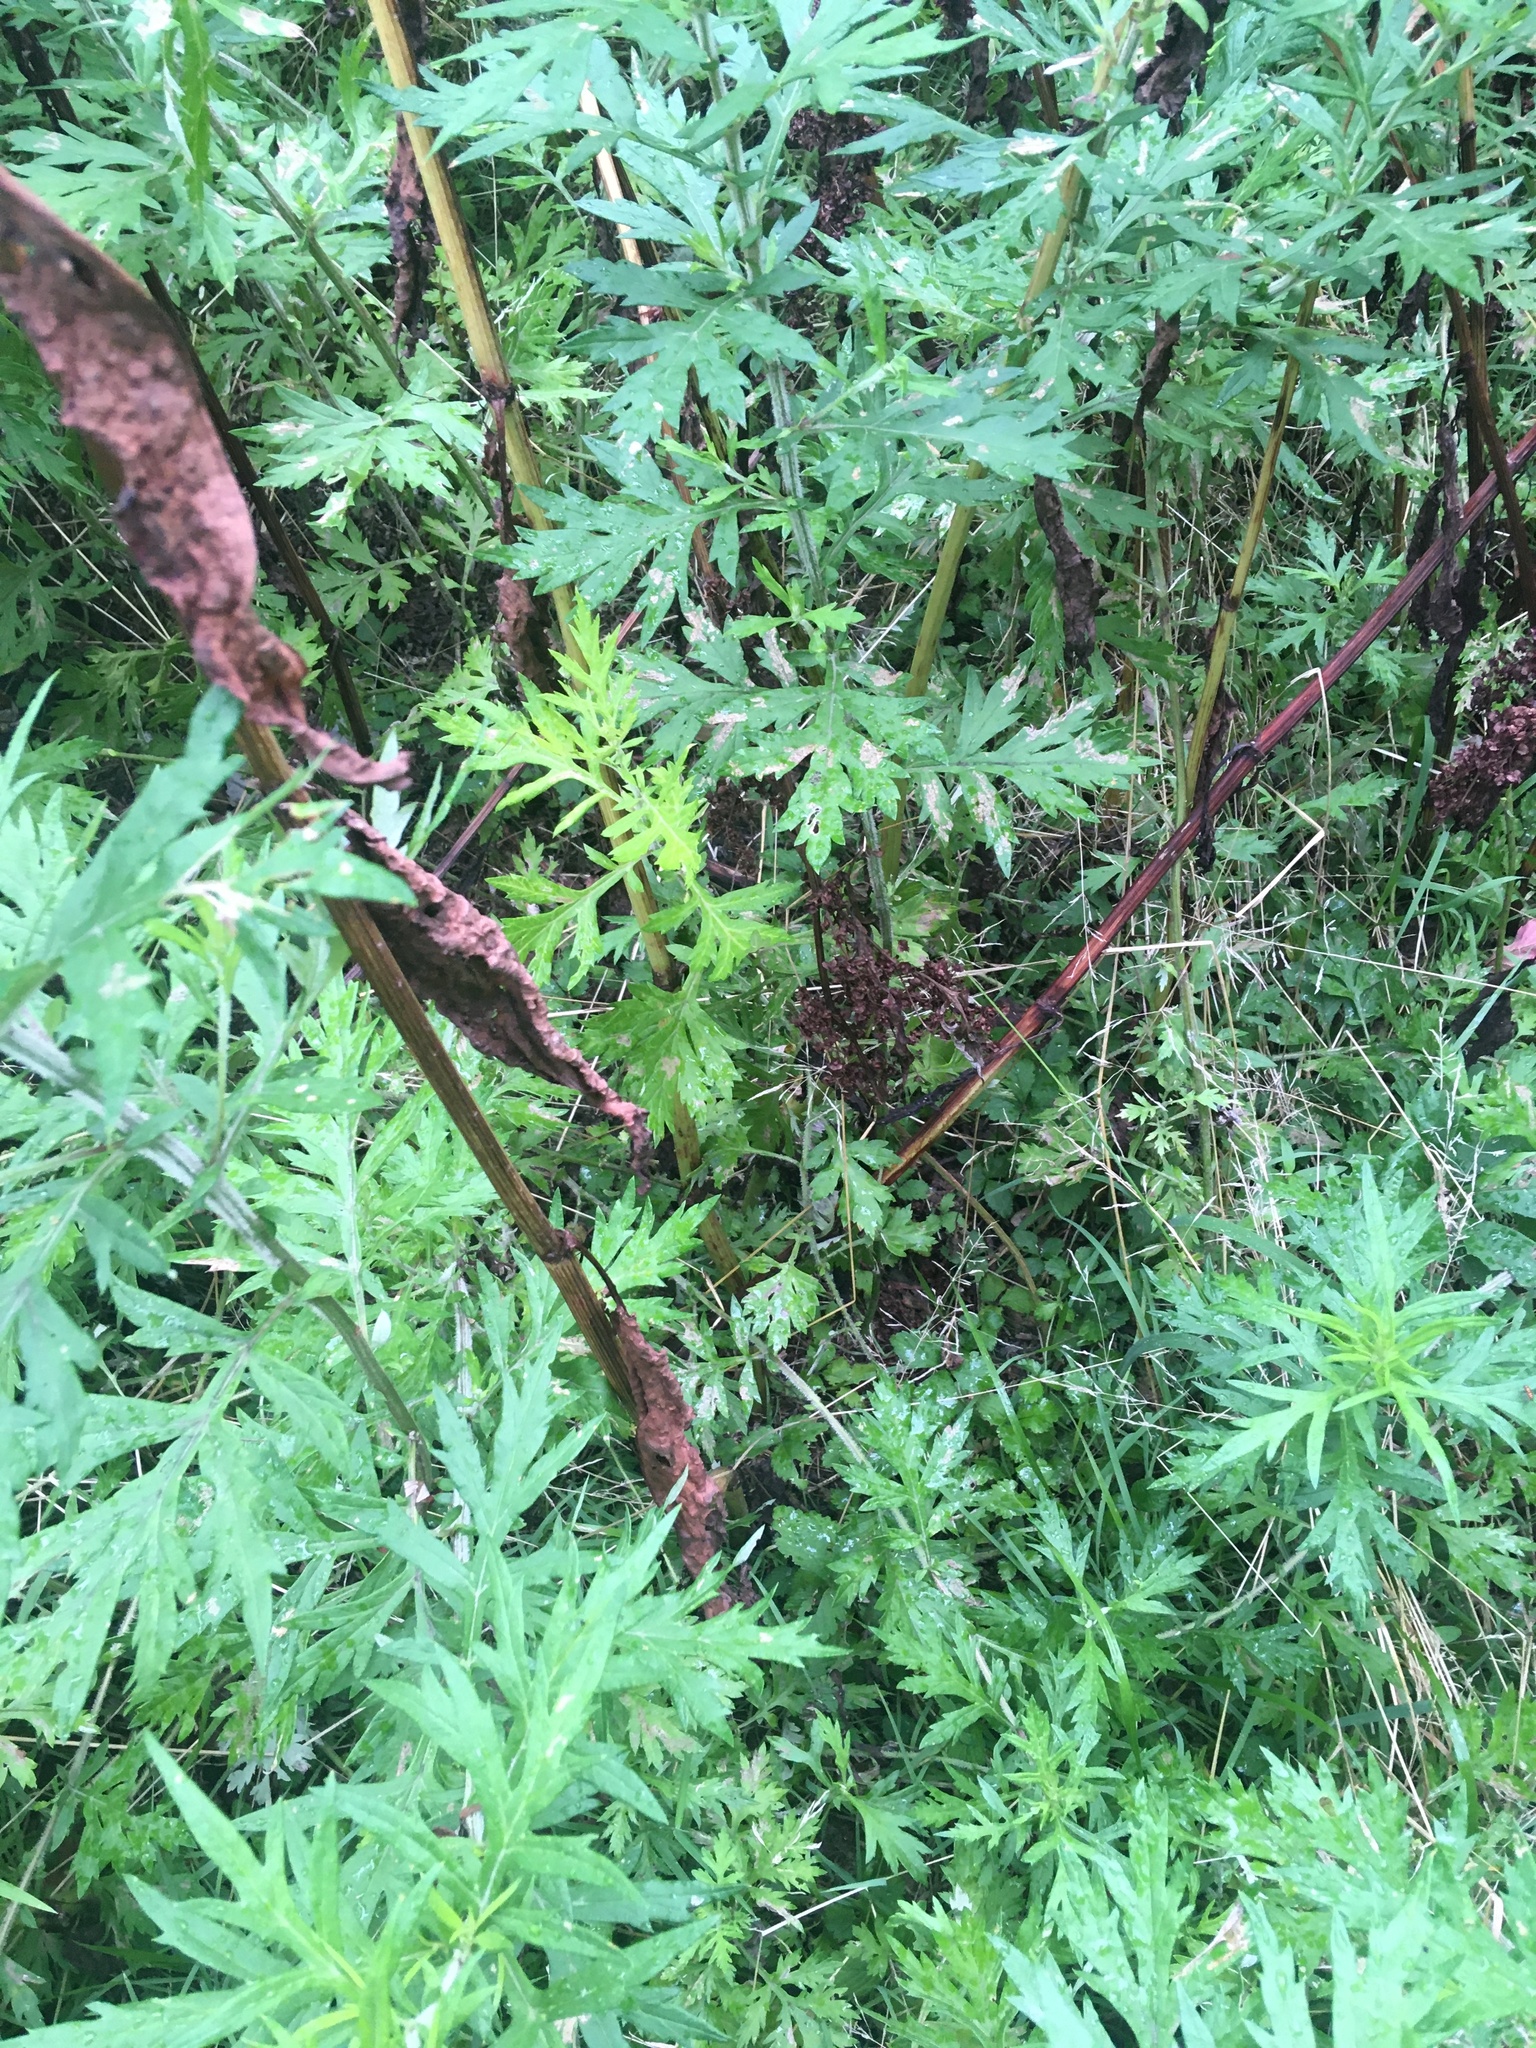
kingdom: Plantae
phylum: Tracheophyta
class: Magnoliopsida
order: Caryophyllales
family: Polygonaceae
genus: Rumex
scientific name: Rumex cristatus
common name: Greek dock
